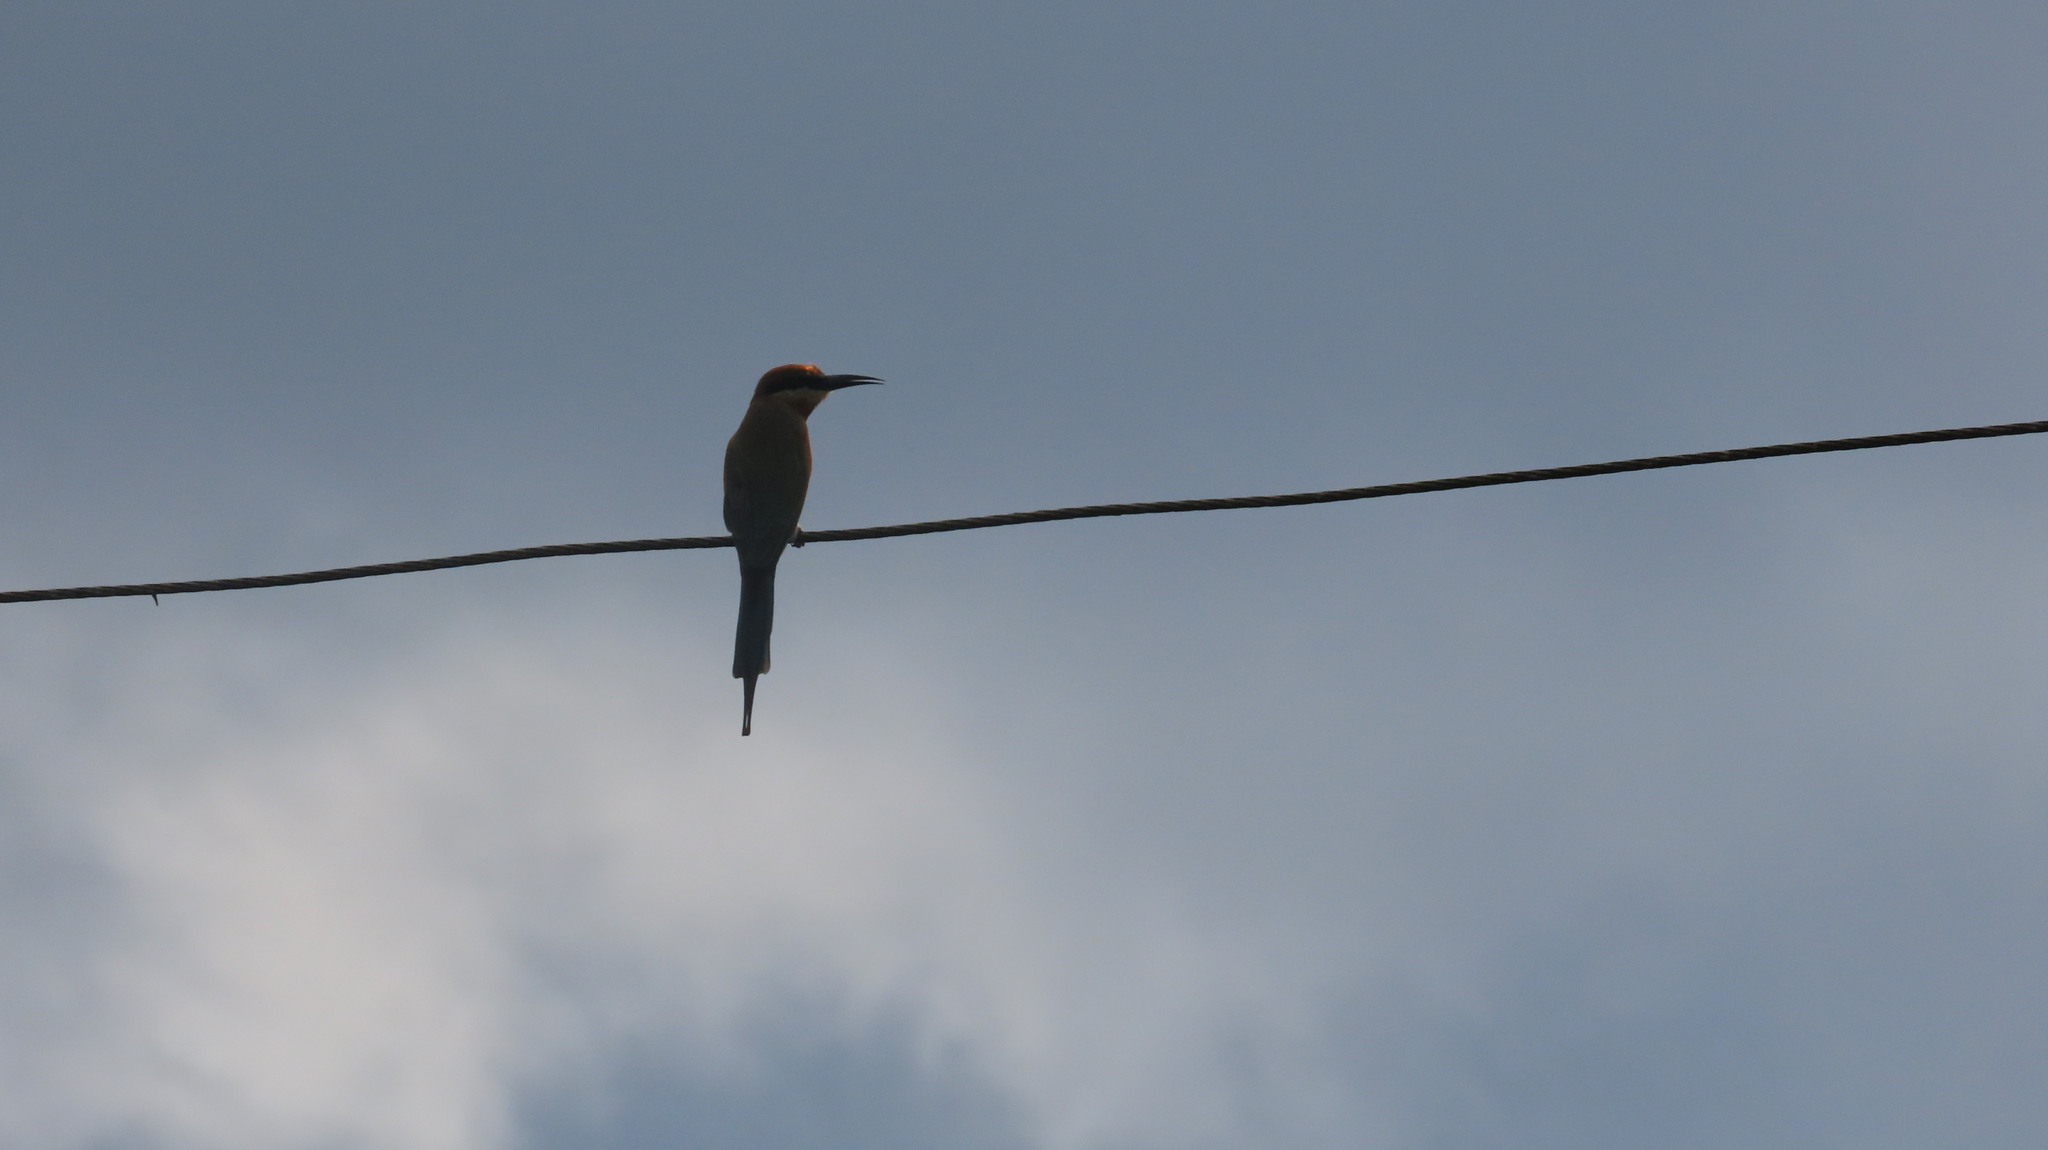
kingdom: Animalia
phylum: Chordata
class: Aves
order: Coraciiformes
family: Meropidae
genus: Merops
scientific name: Merops philippinus
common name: Blue-tailed bee-eater
